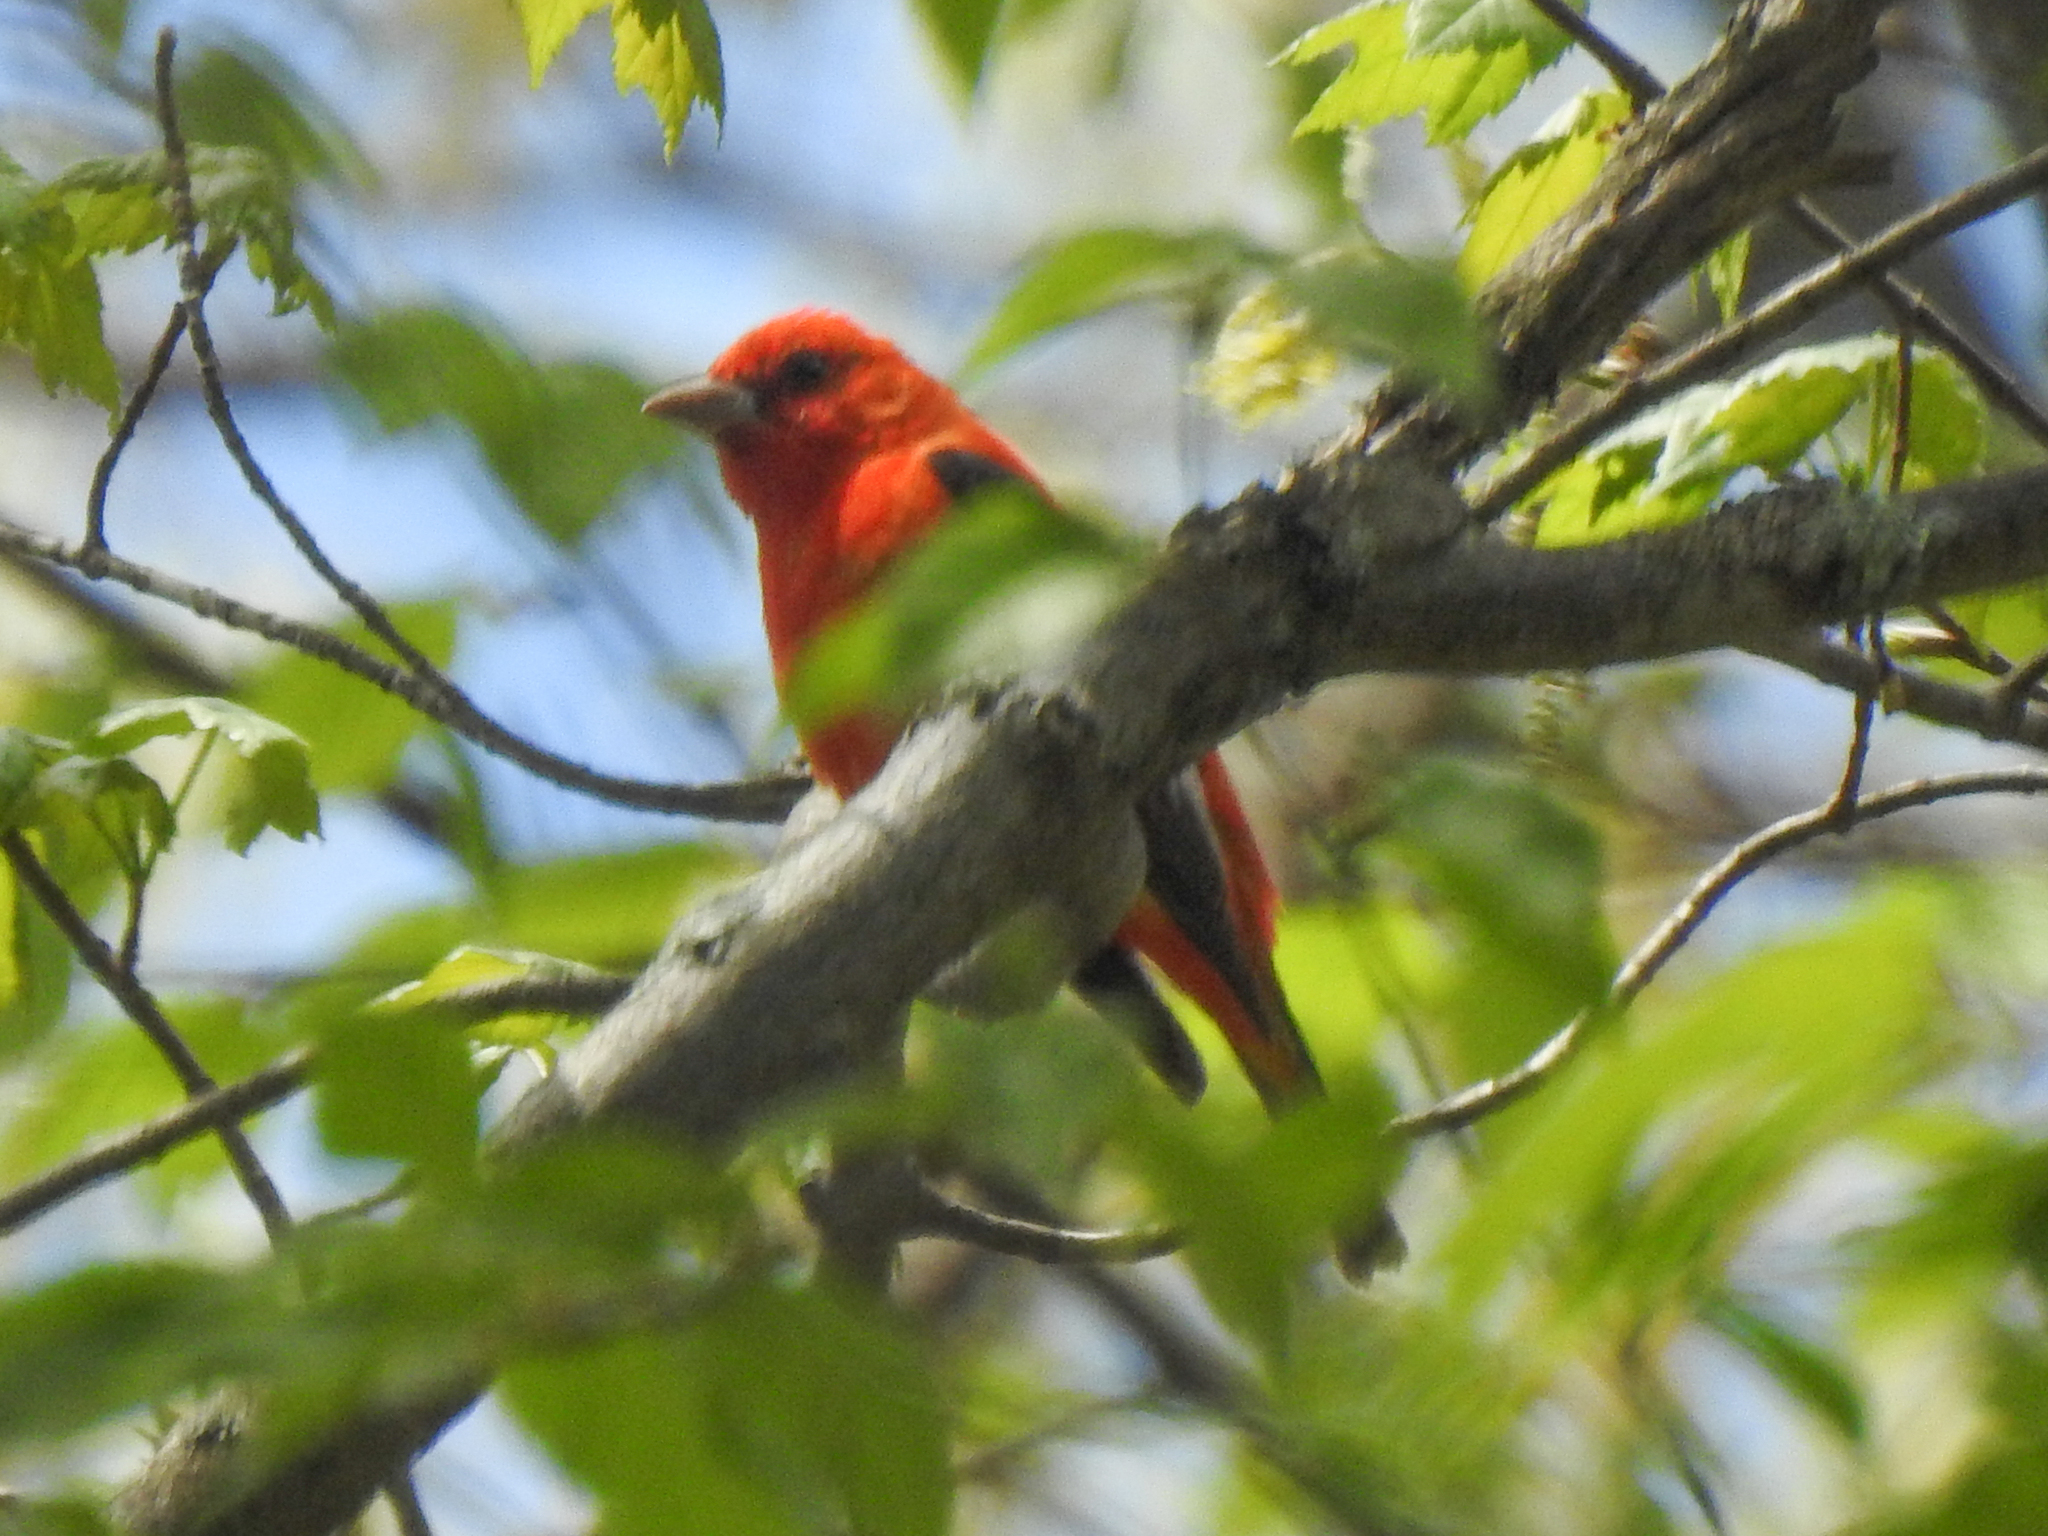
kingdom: Animalia
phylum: Chordata
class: Aves
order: Passeriformes
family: Cardinalidae
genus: Piranga
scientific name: Piranga olivacea
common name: Scarlet tanager
